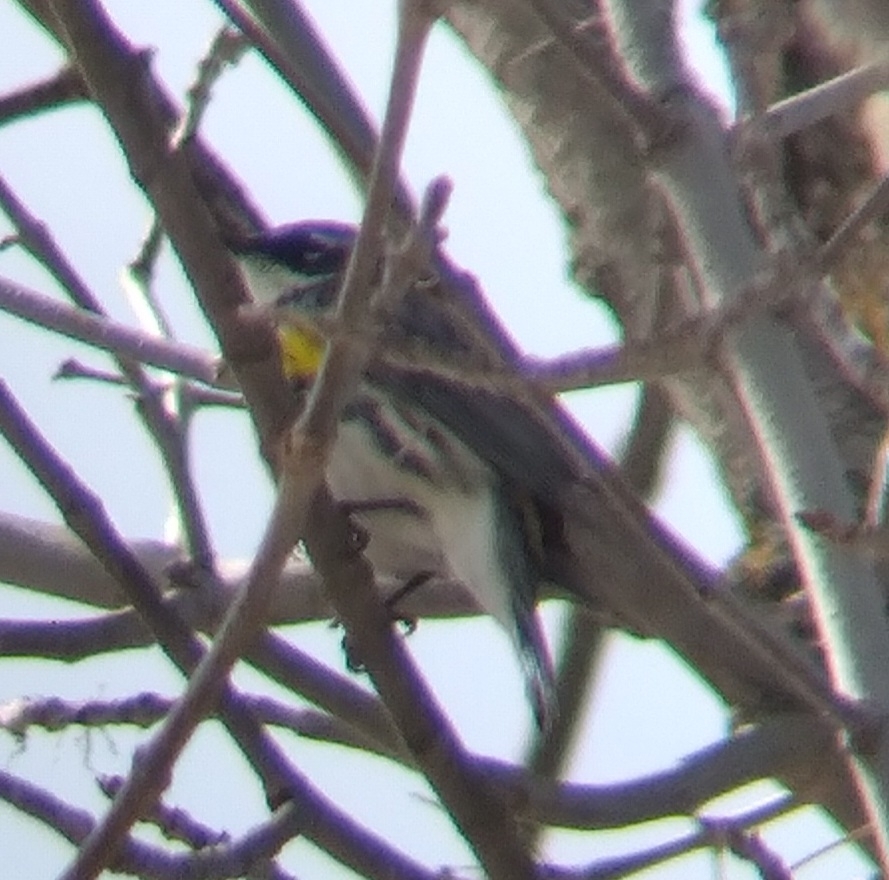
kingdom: Animalia
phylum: Chordata
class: Aves
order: Passeriformes
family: Parulidae
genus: Setophaga
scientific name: Setophaga coronata
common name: Myrtle warbler
